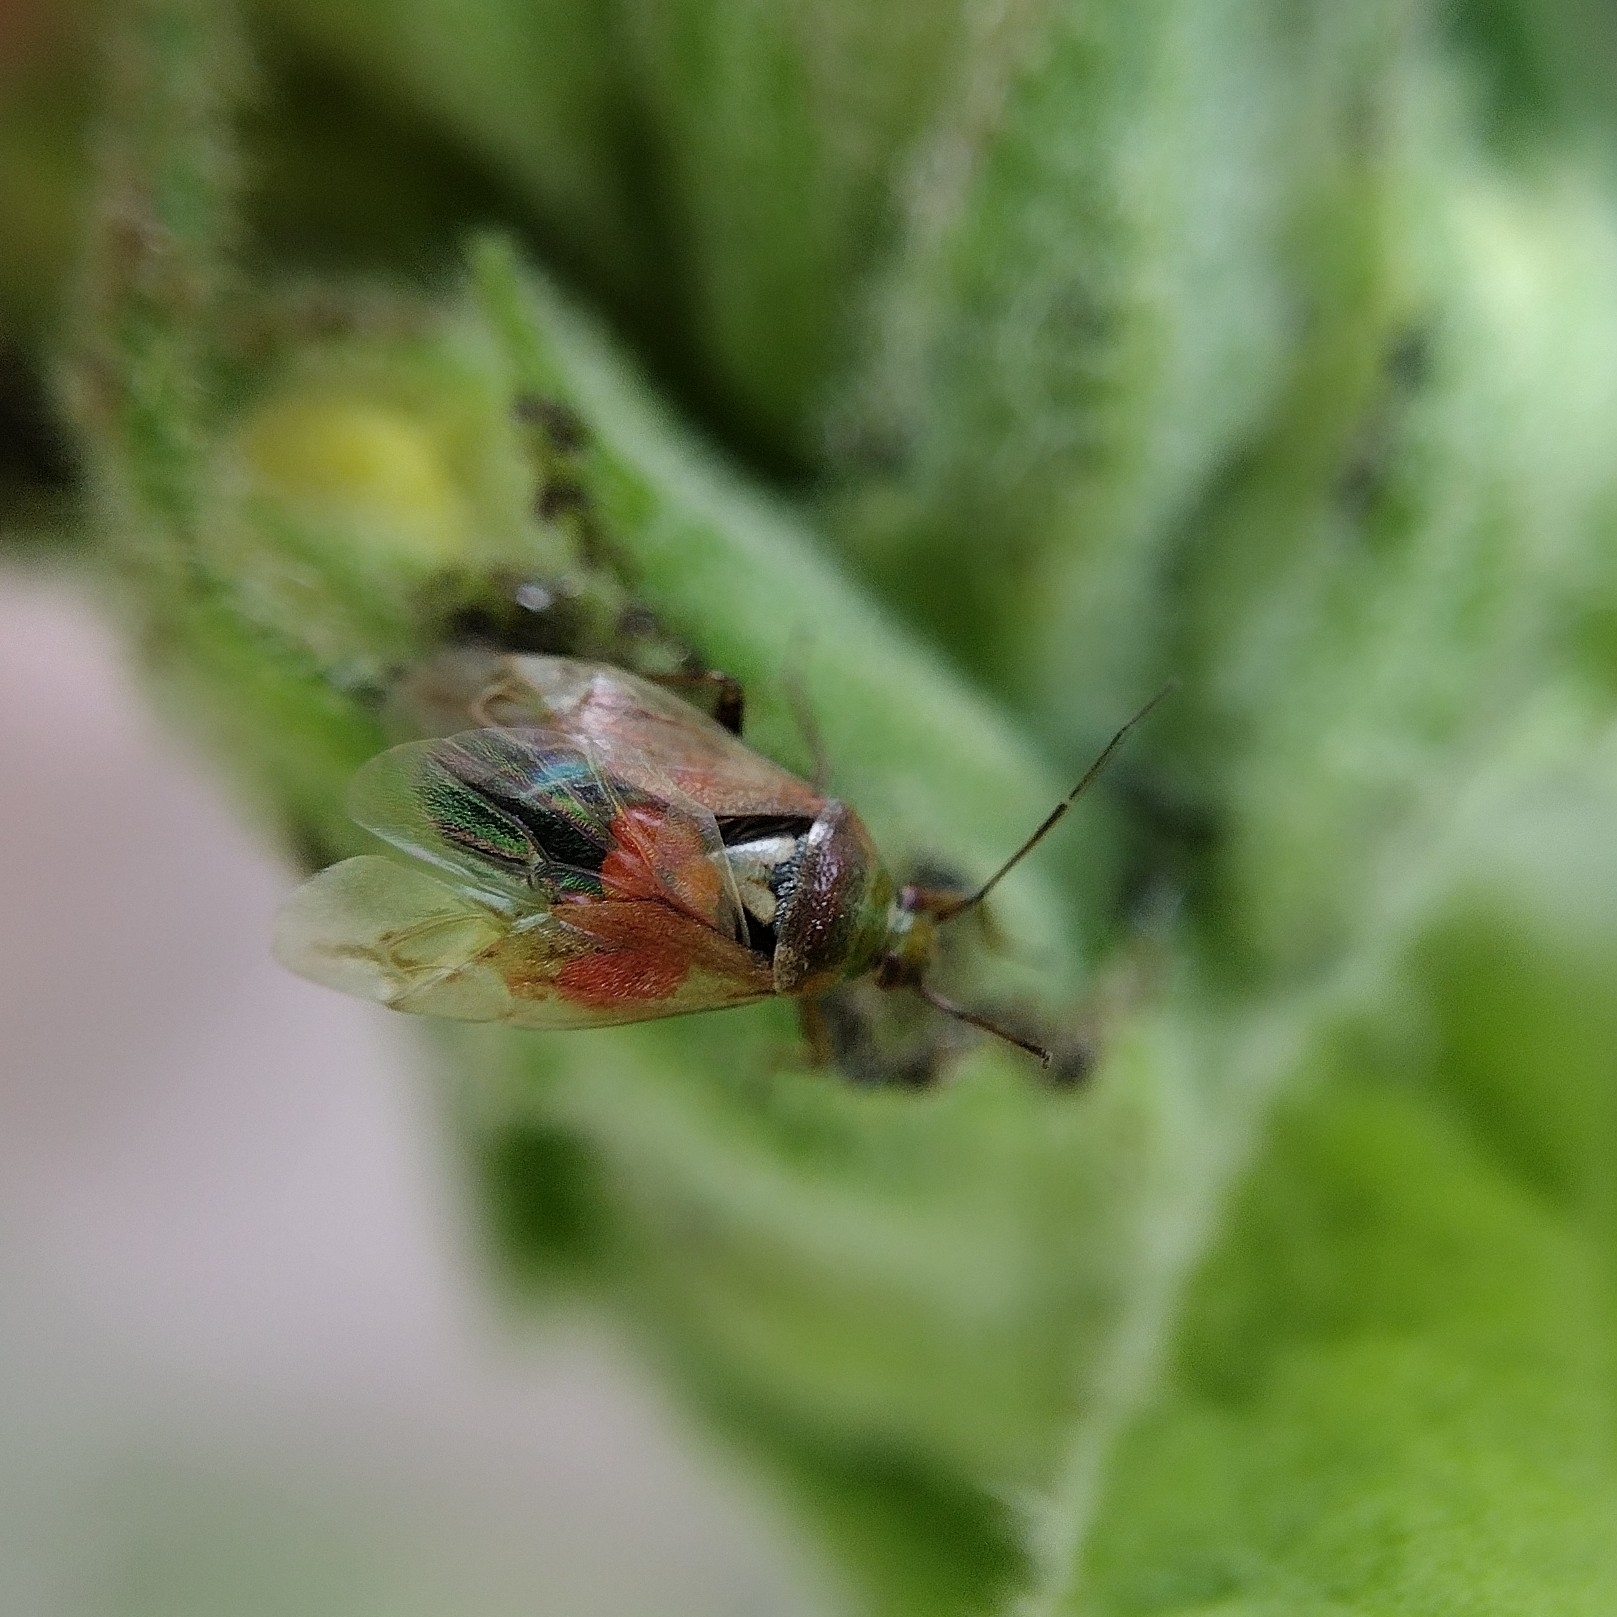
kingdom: Animalia
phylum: Arthropoda
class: Insecta
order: Hemiptera
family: Miridae
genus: Lygus
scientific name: Lygus rugulipennis
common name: European tarnished plant bug
